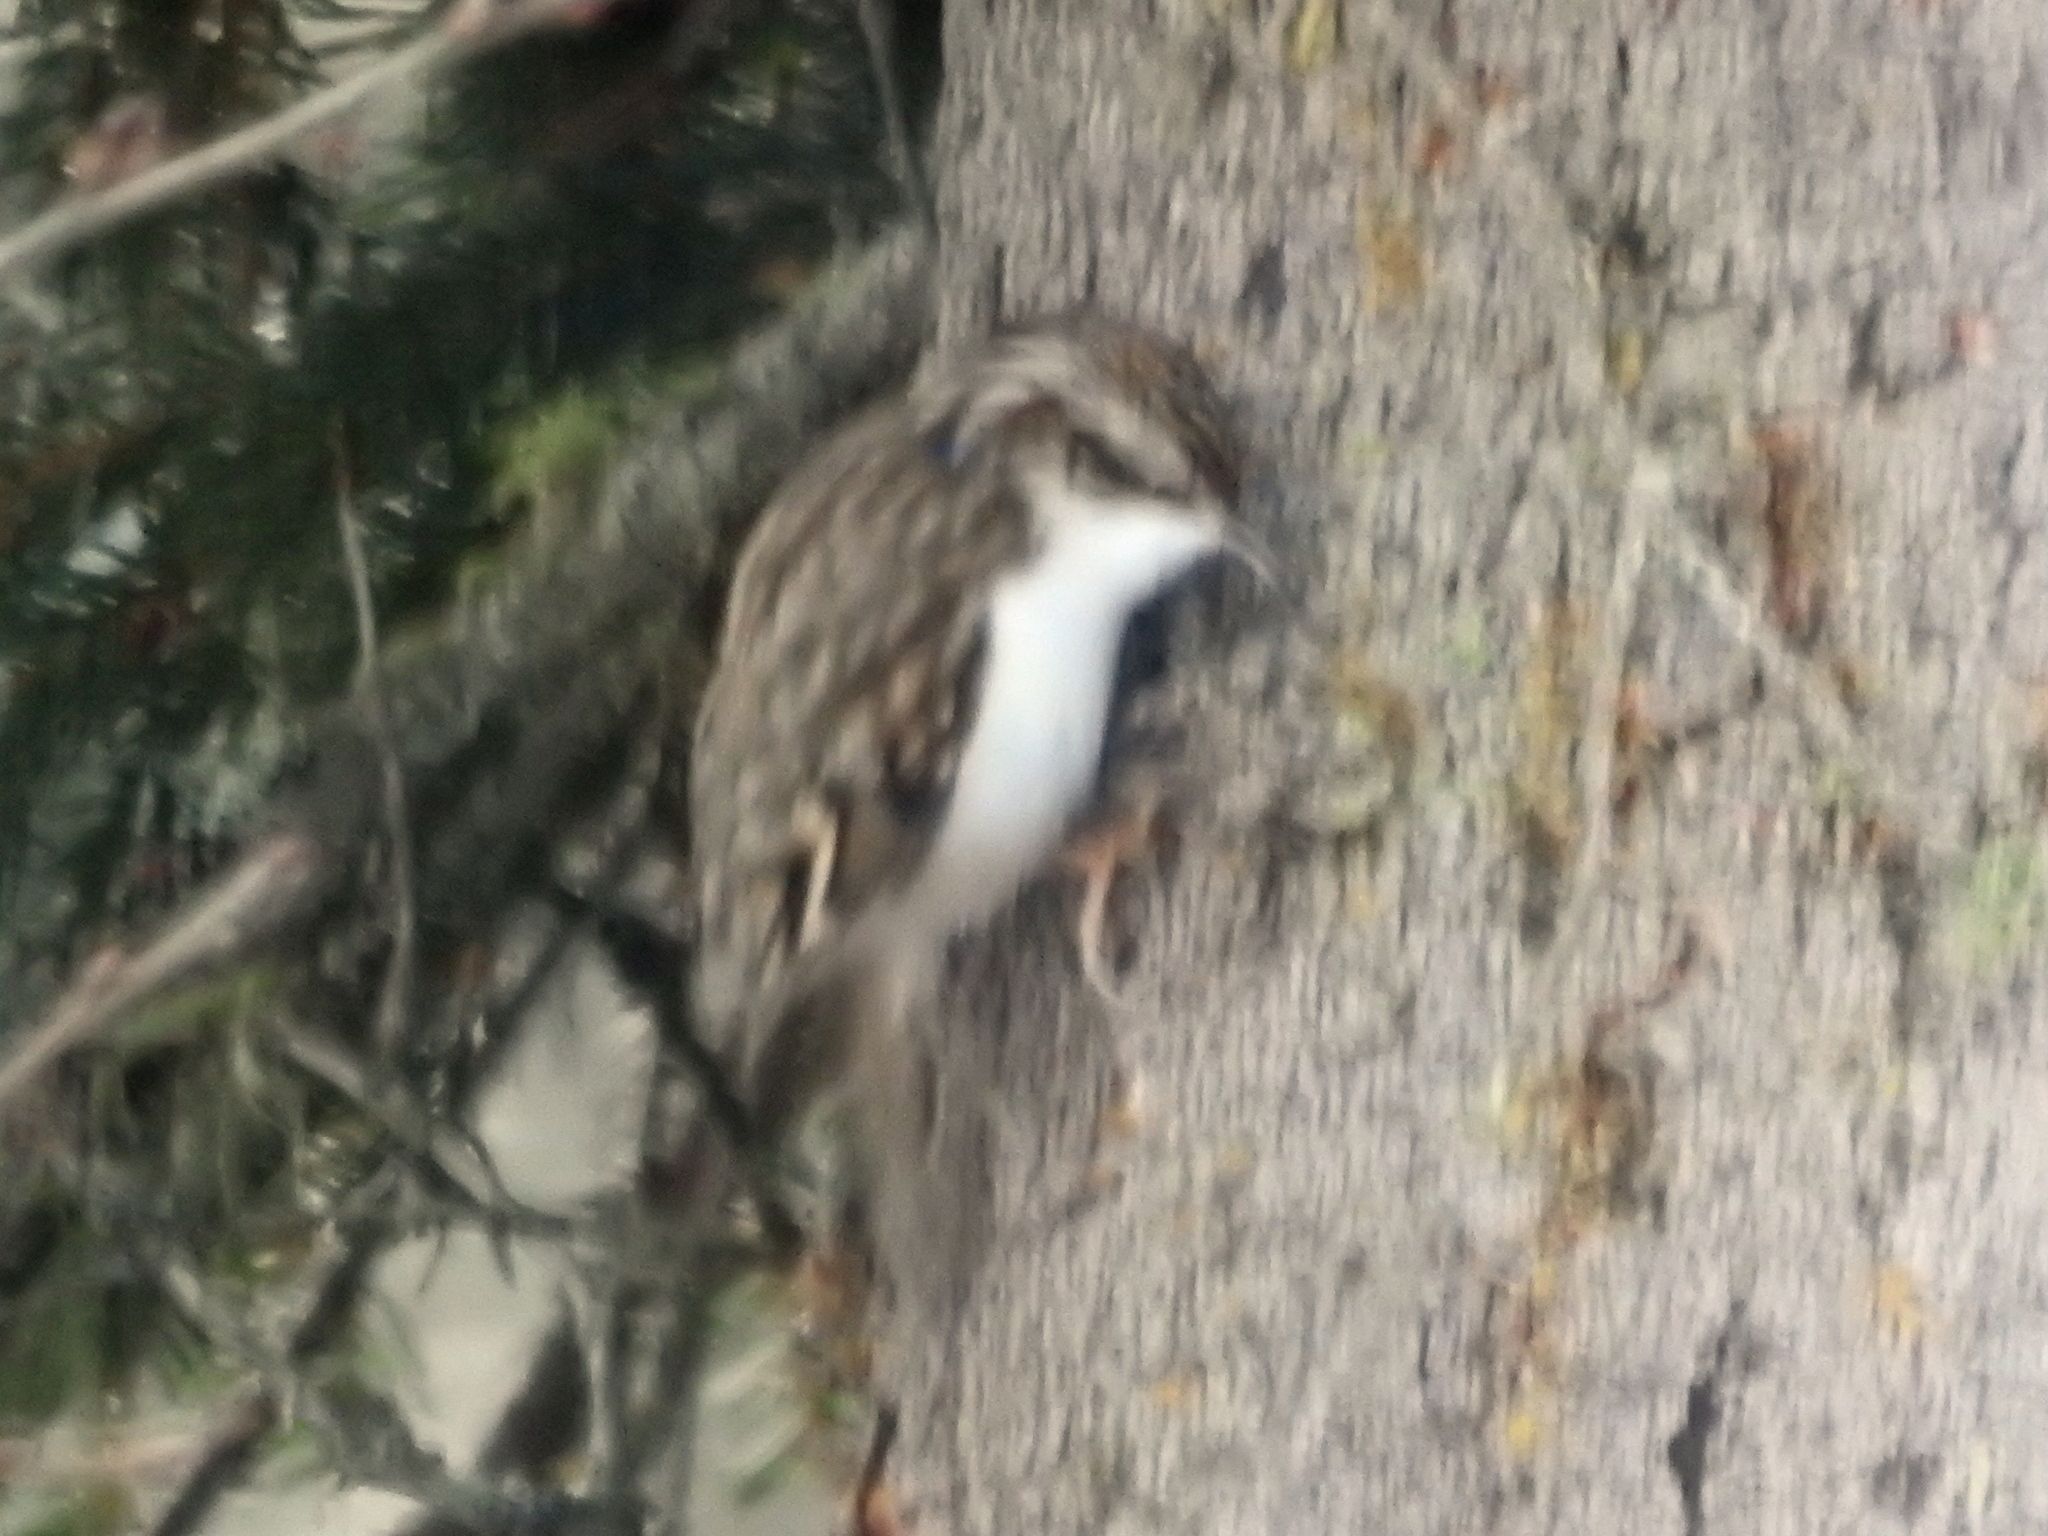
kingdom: Animalia
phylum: Chordata
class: Aves
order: Passeriformes
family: Certhiidae
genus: Certhia
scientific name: Certhia familiaris
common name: Eurasian treecreeper
